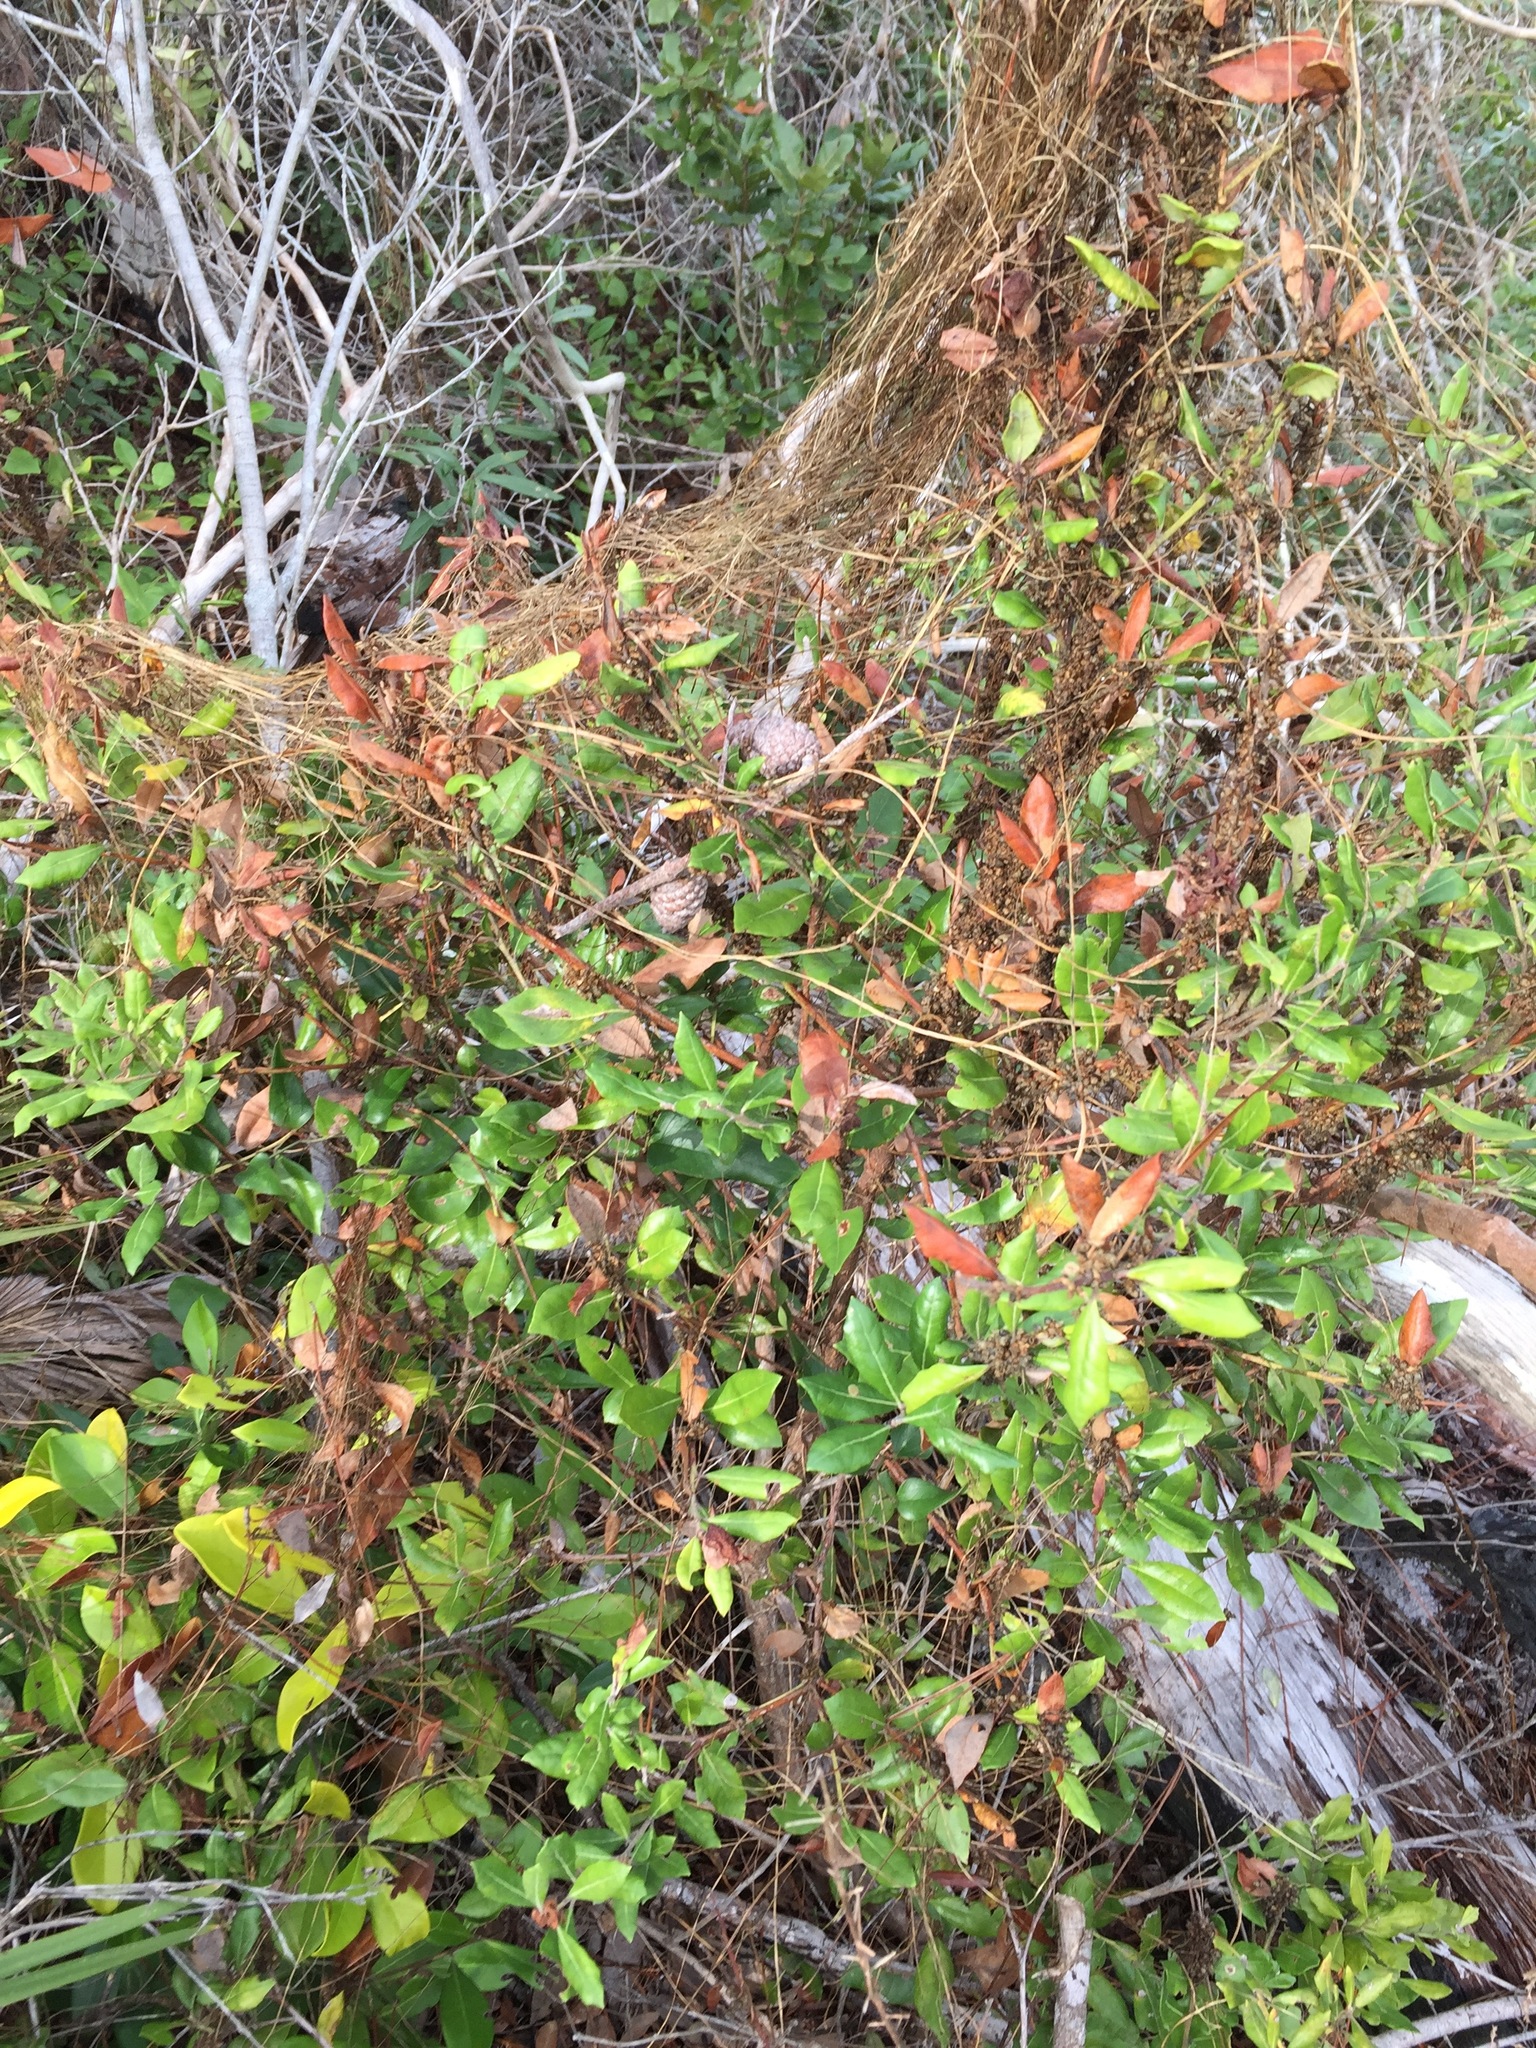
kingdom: Plantae
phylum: Tracheophyta
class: Magnoliopsida
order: Solanales
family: Convolvulaceae
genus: Cuscuta
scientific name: Cuscuta compacta
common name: Compact dodder
